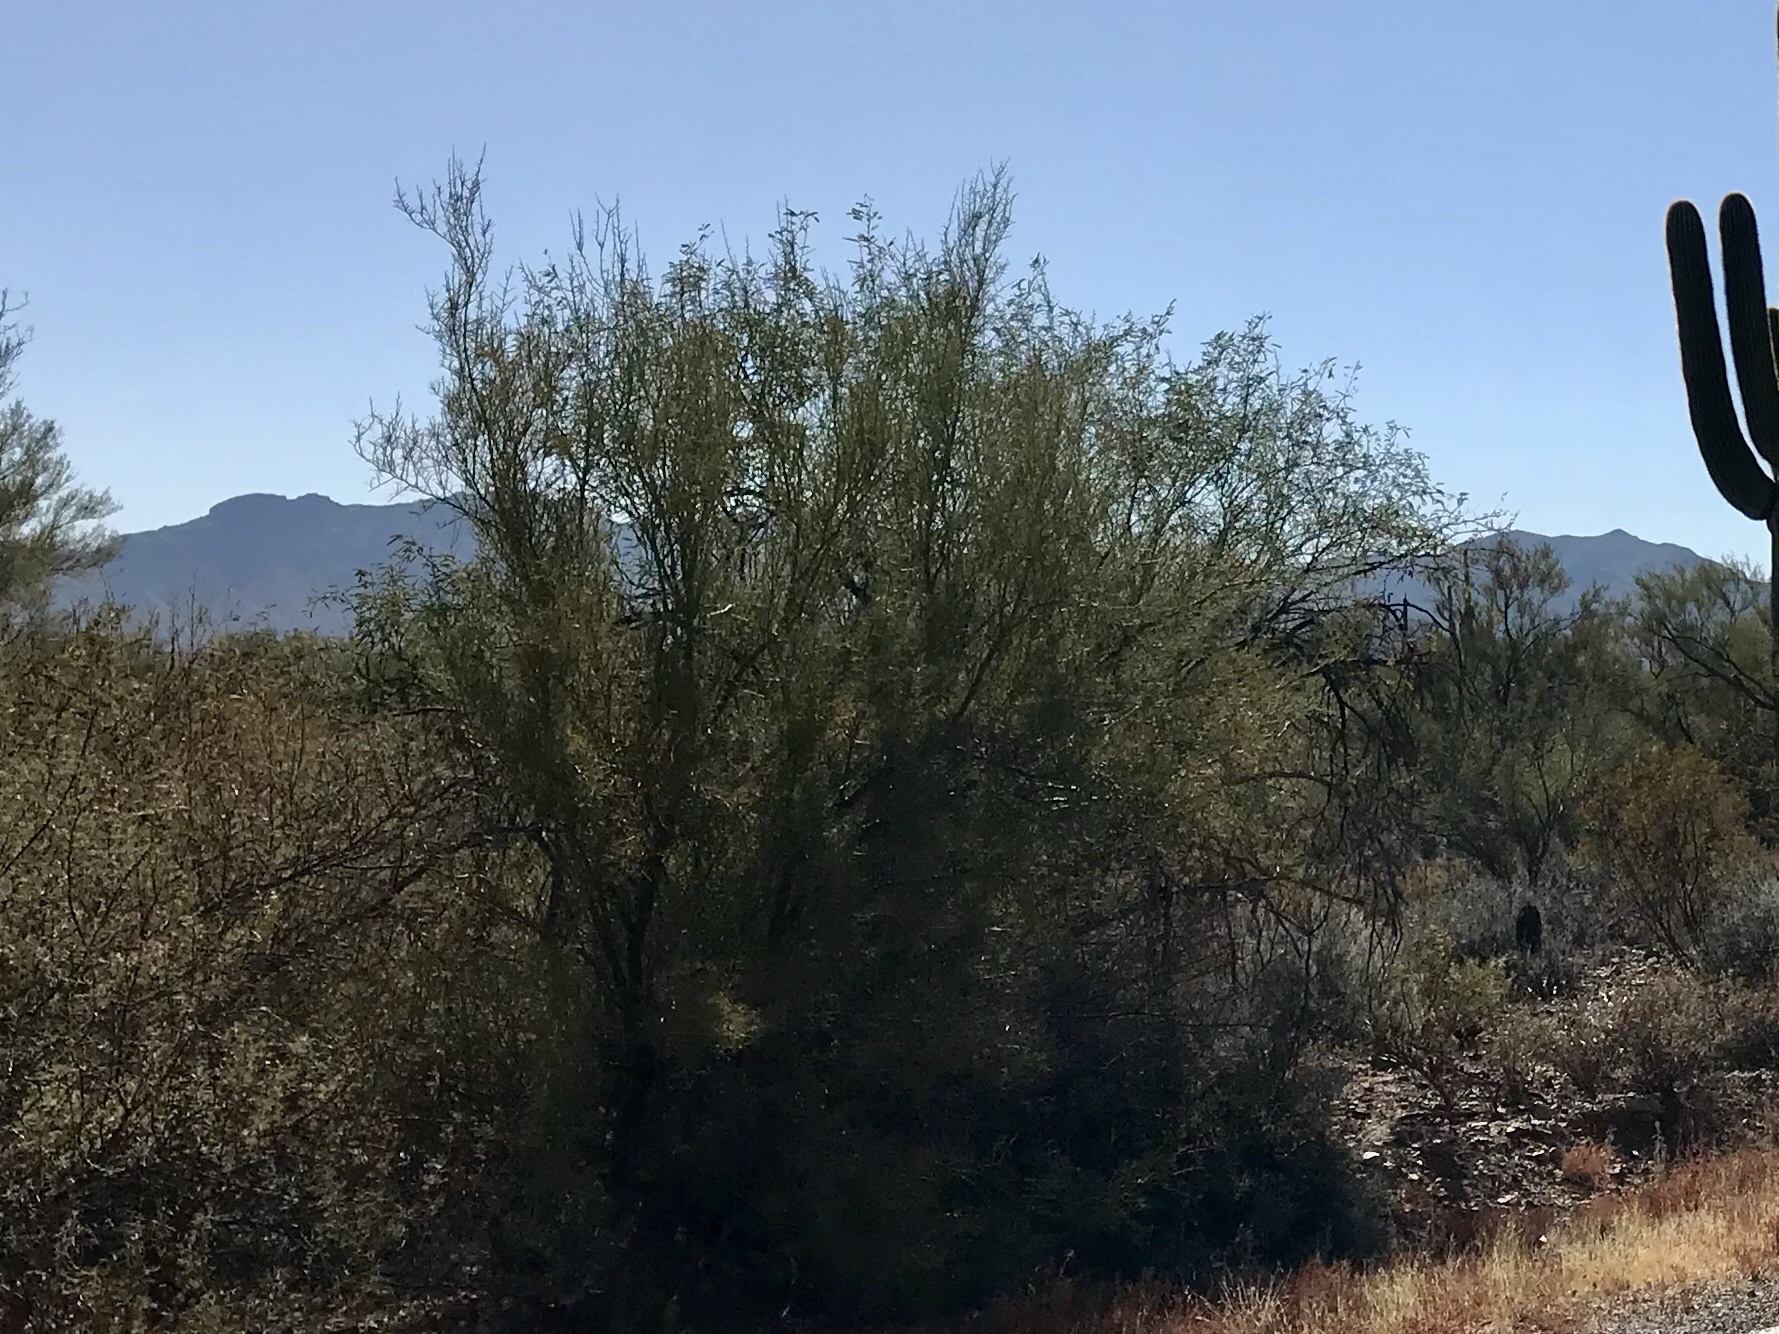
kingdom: Plantae
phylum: Tracheophyta
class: Magnoliopsida
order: Fabales
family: Fabaceae
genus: Parkinsonia
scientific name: Parkinsonia microphylla
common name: Yellow paloverde
